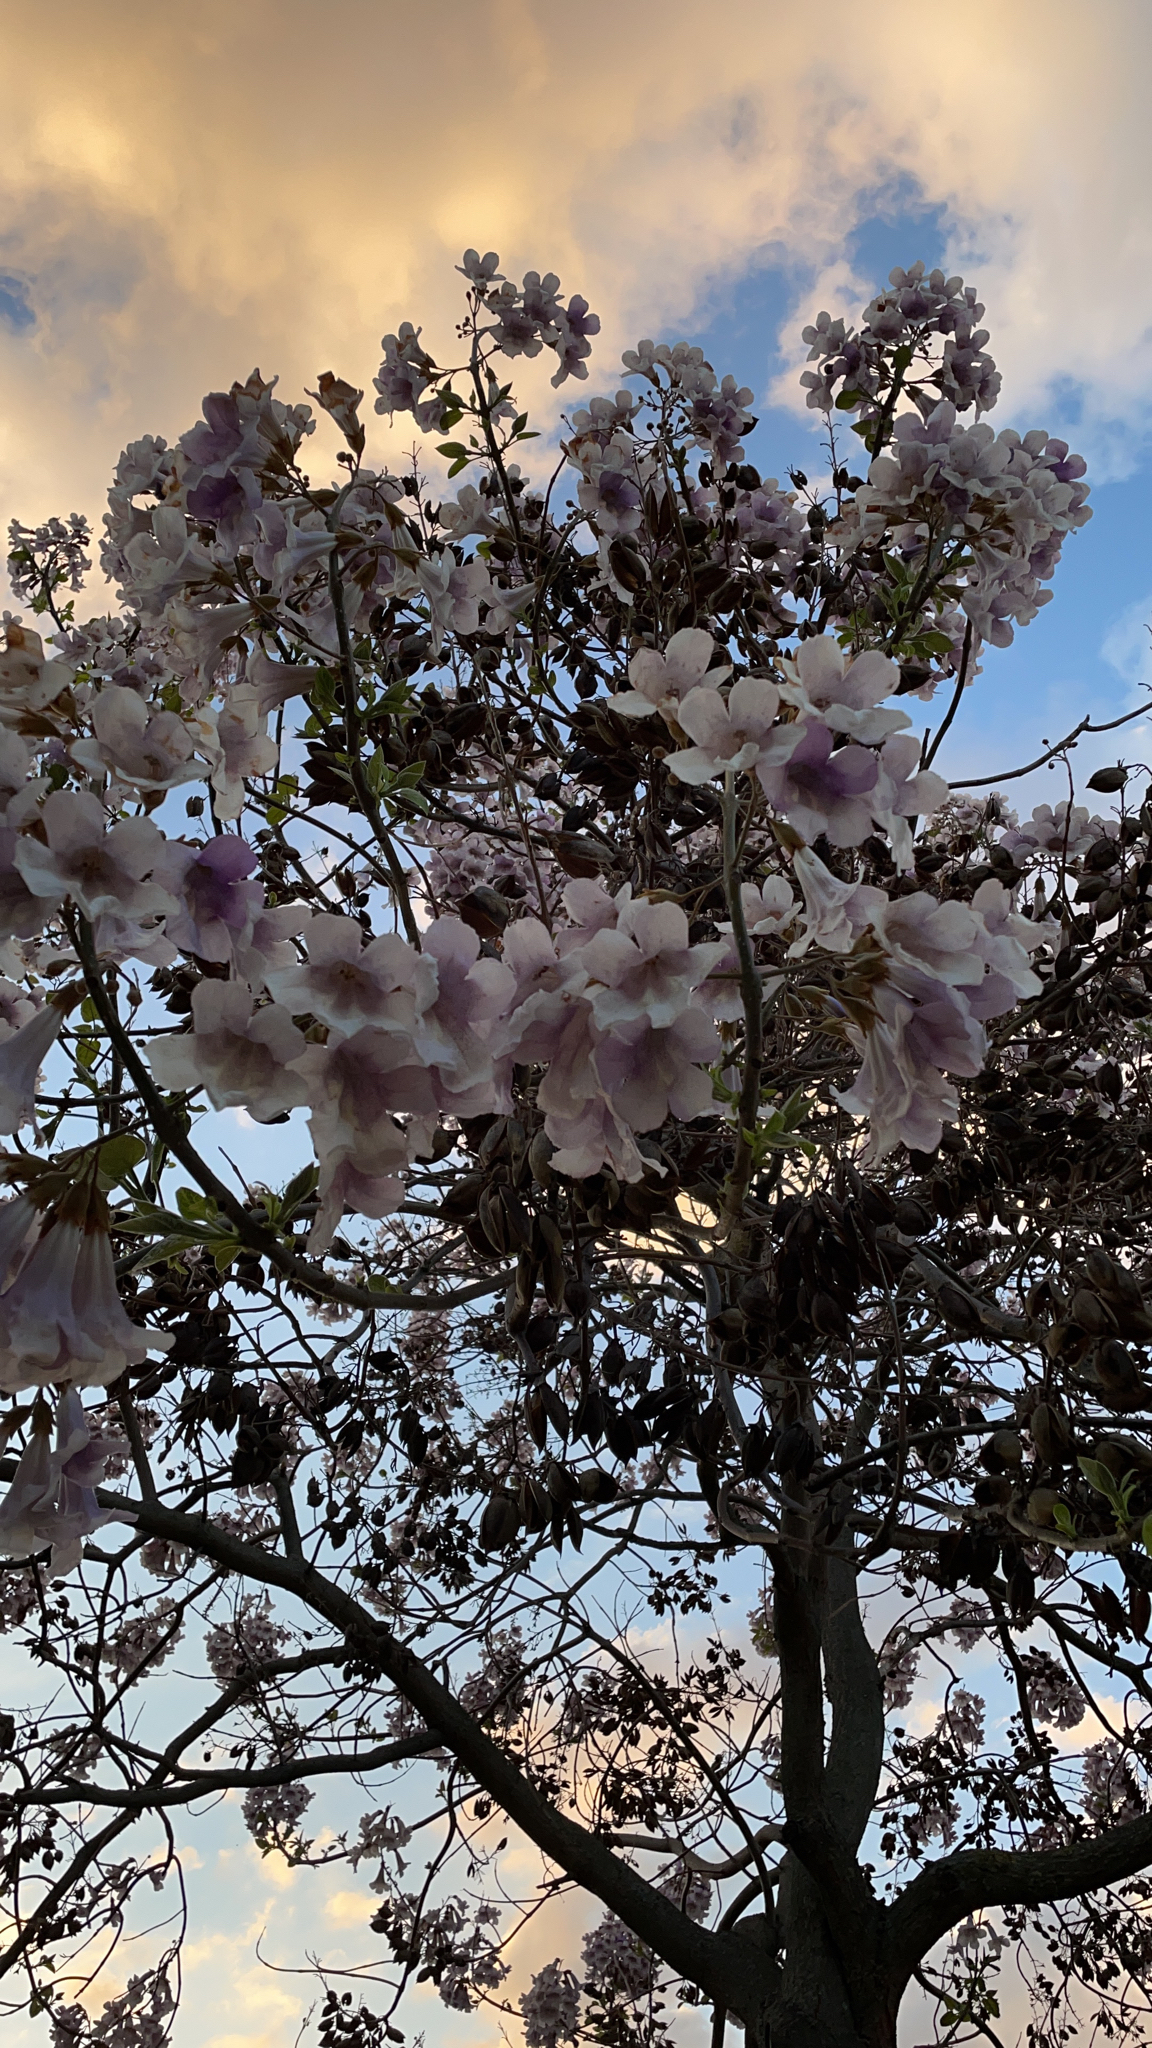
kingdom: Plantae
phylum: Tracheophyta
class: Magnoliopsida
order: Lamiales
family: Paulowniaceae
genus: Paulownia
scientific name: Paulownia tomentosa
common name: Foxglove-tree
